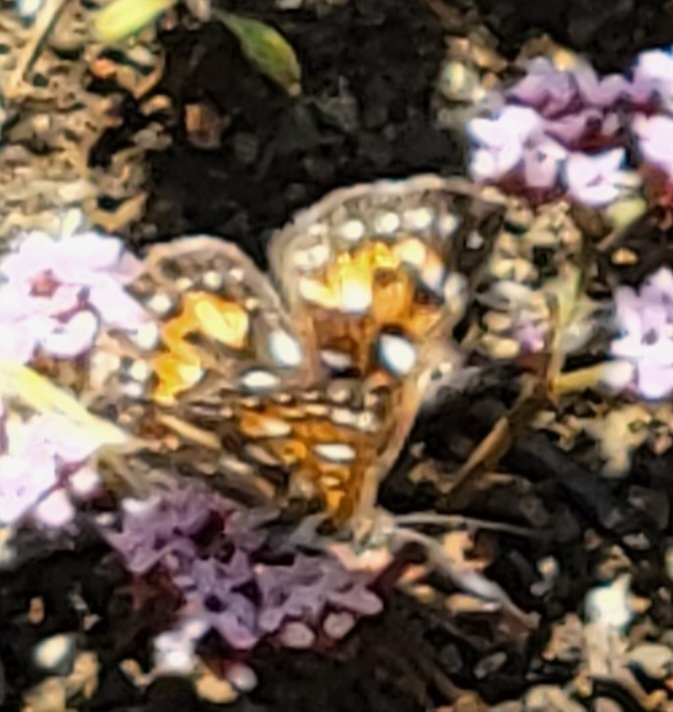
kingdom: Animalia
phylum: Arthropoda
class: Insecta
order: Lepidoptera
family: Riodinidae
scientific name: Riodinidae
